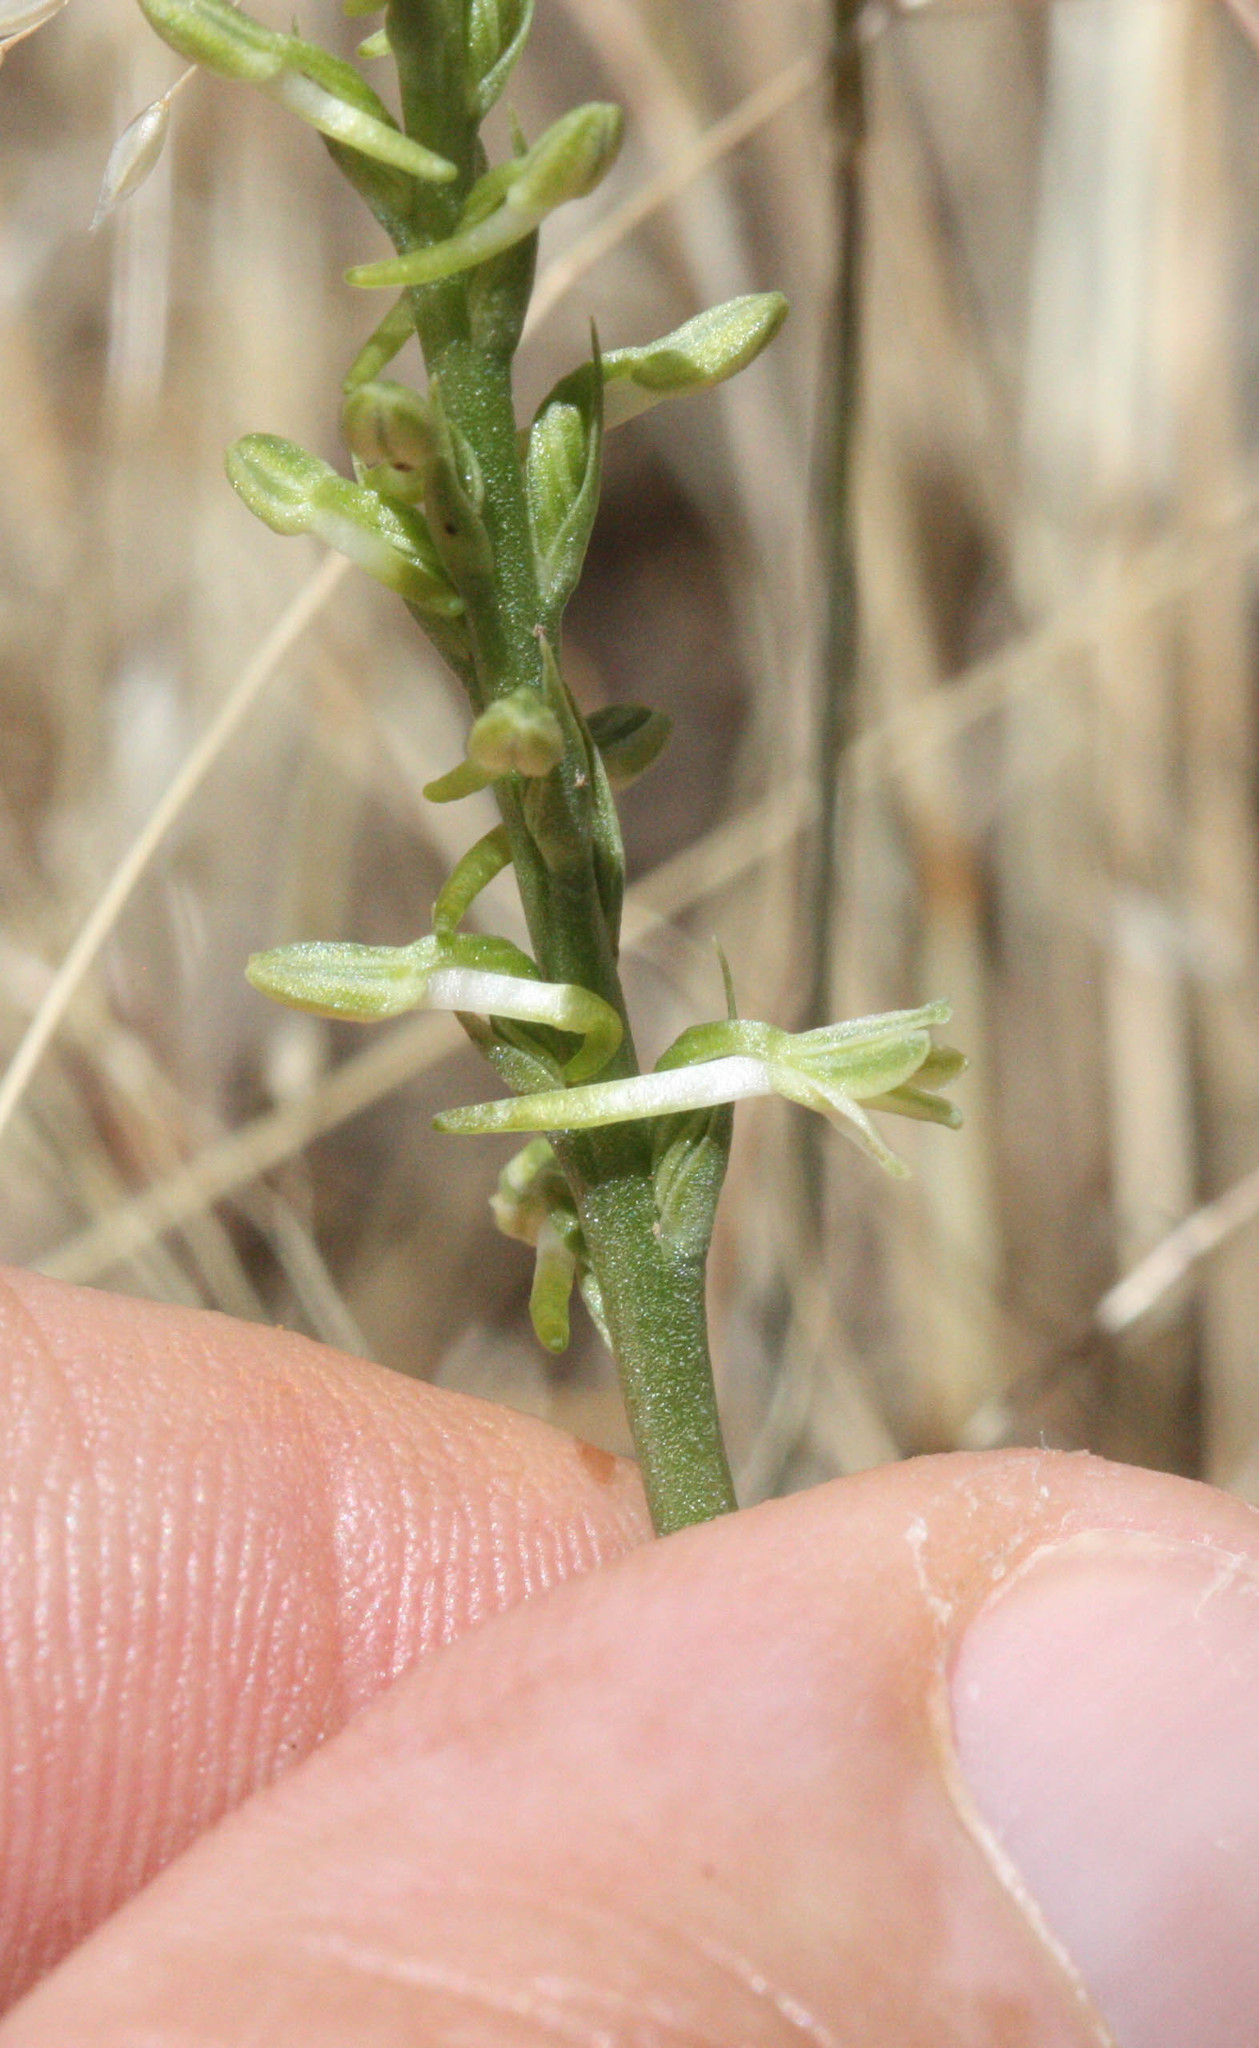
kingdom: Plantae
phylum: Tracheophyta
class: Liliopsida
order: Asparagales
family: Orchidaceae
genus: Platanthera
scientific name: Platanthera transversa
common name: Royal rein orchid
